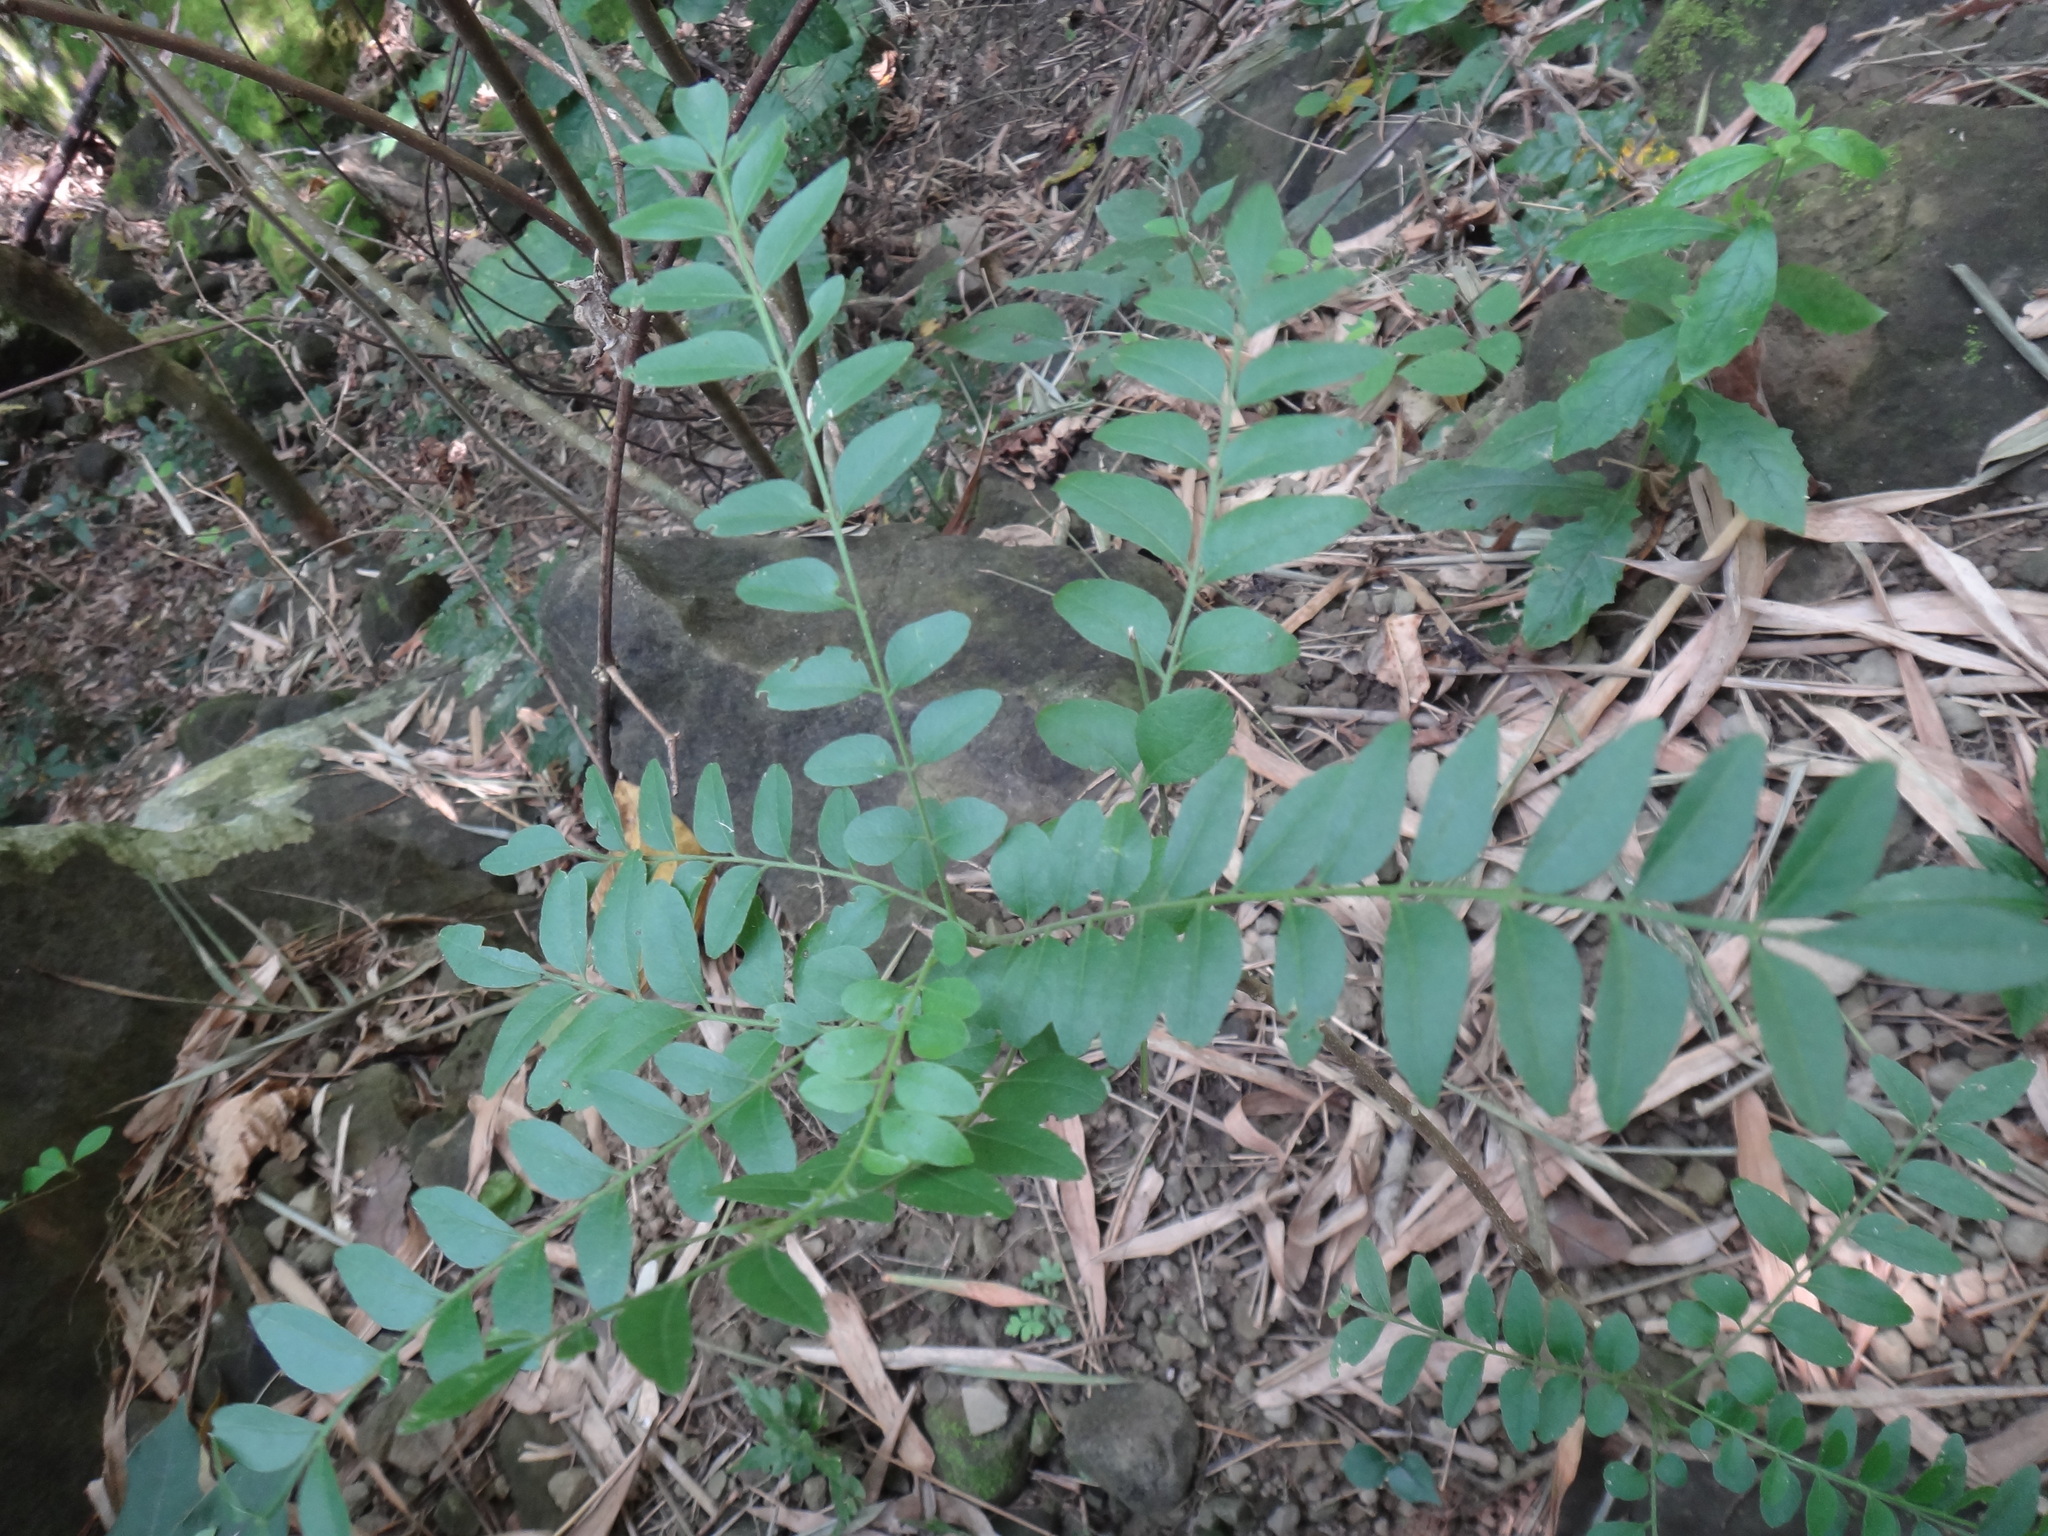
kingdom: Plantae
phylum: Tracheophyta
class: Magnoliopsida
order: Sapindales
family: Rutaceae
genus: Clausena
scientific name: Clausena excavata
